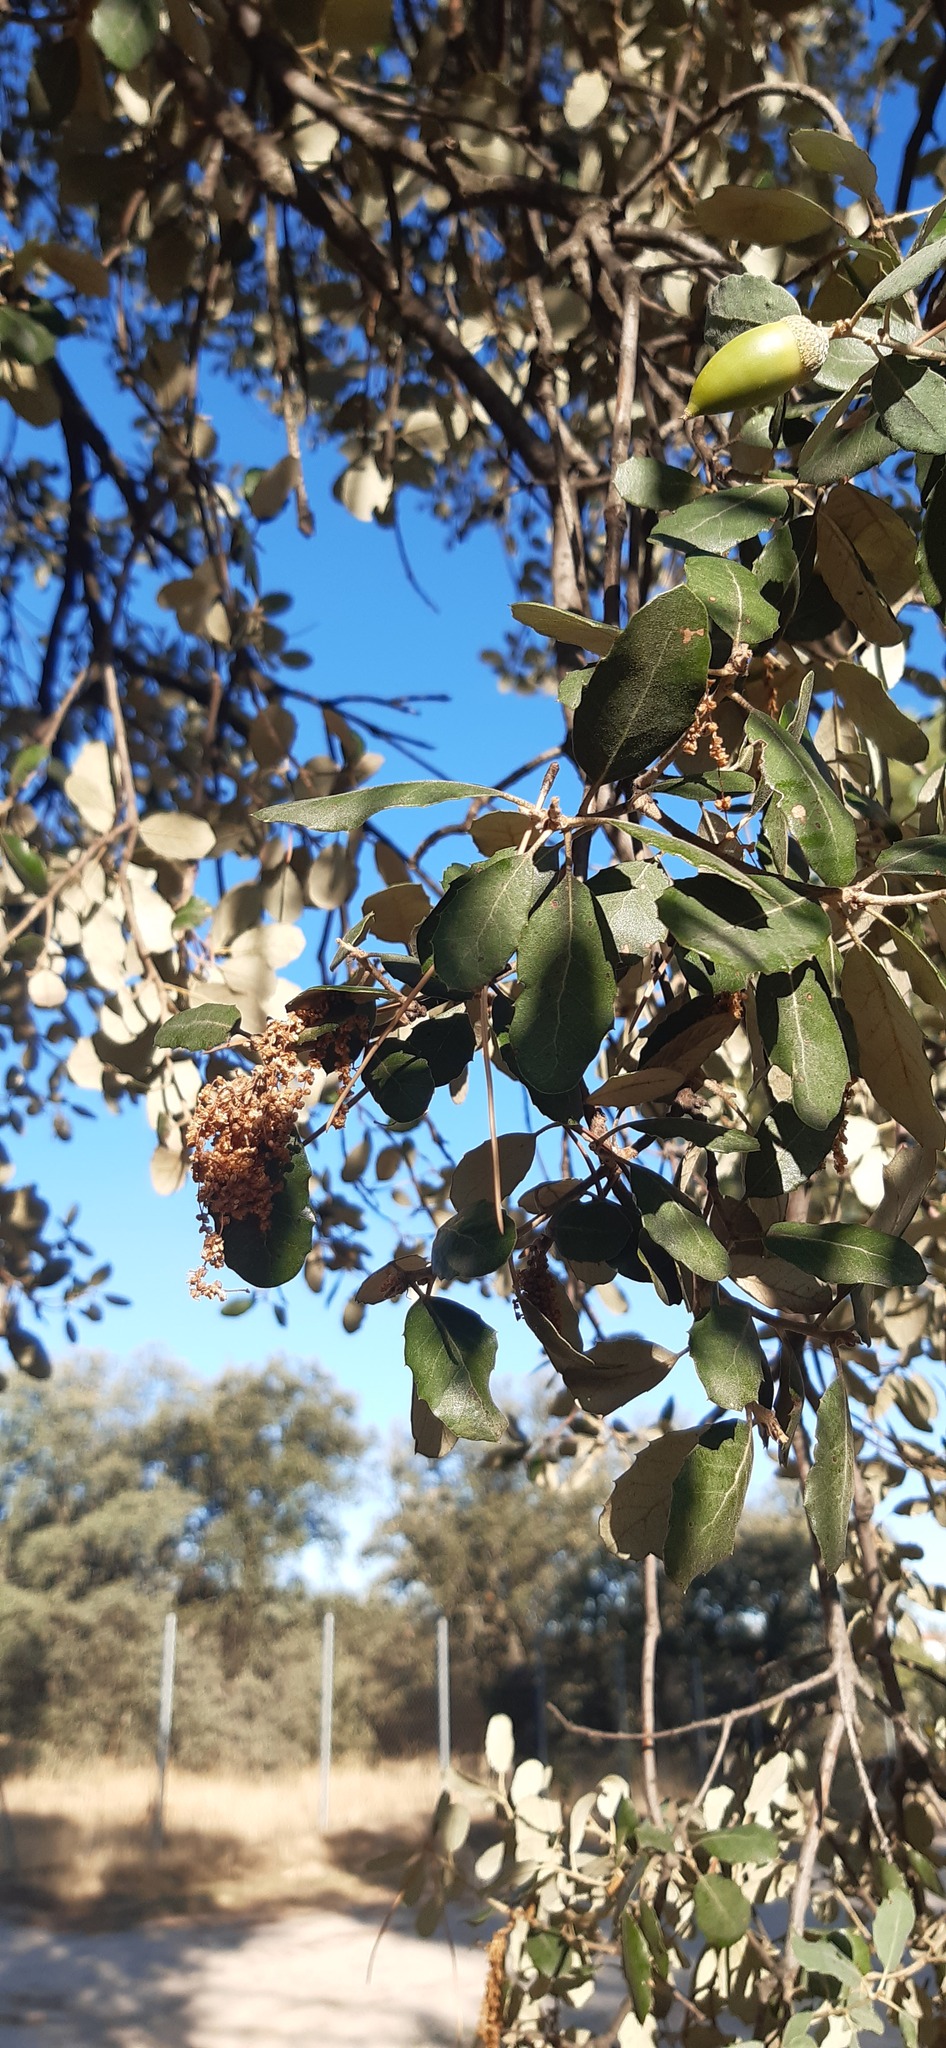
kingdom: Plantae
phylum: Tracheophyta
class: Magnoliopsida
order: Fagales
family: Fagaceae
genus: Quercus
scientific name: Quercus rotundifolia
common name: Holm oak
